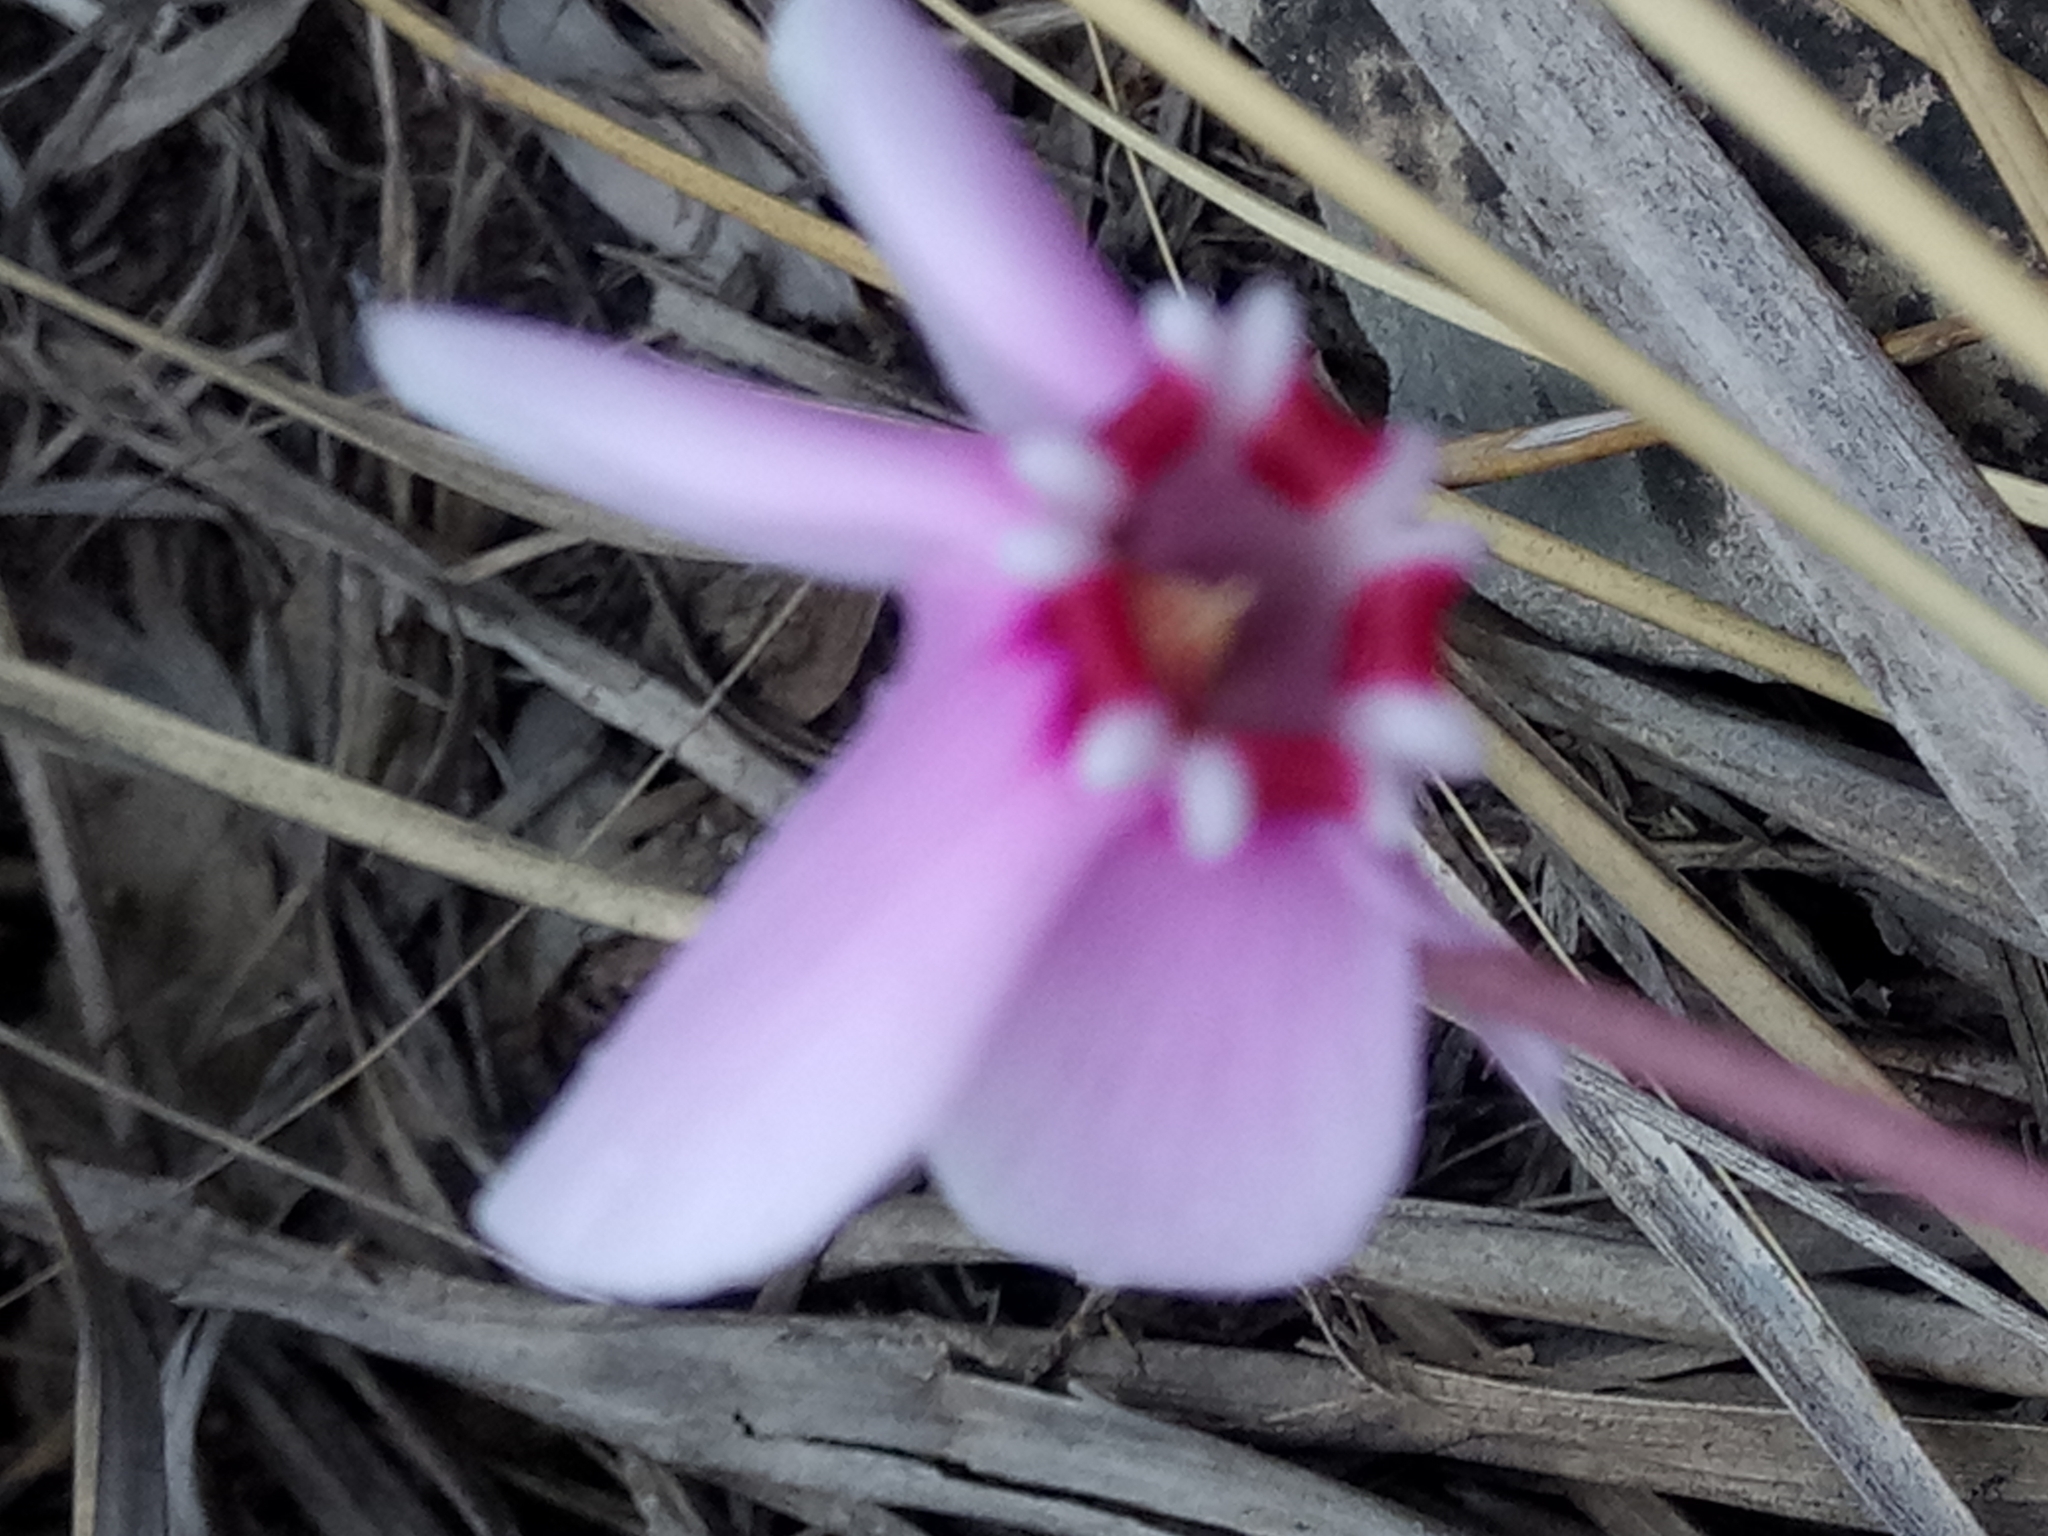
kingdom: Plantae
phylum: Tracheophyta
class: Magnoliopsida
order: Ericales
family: Primulaceae
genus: Cyclamen
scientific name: Cyclamen africanum
